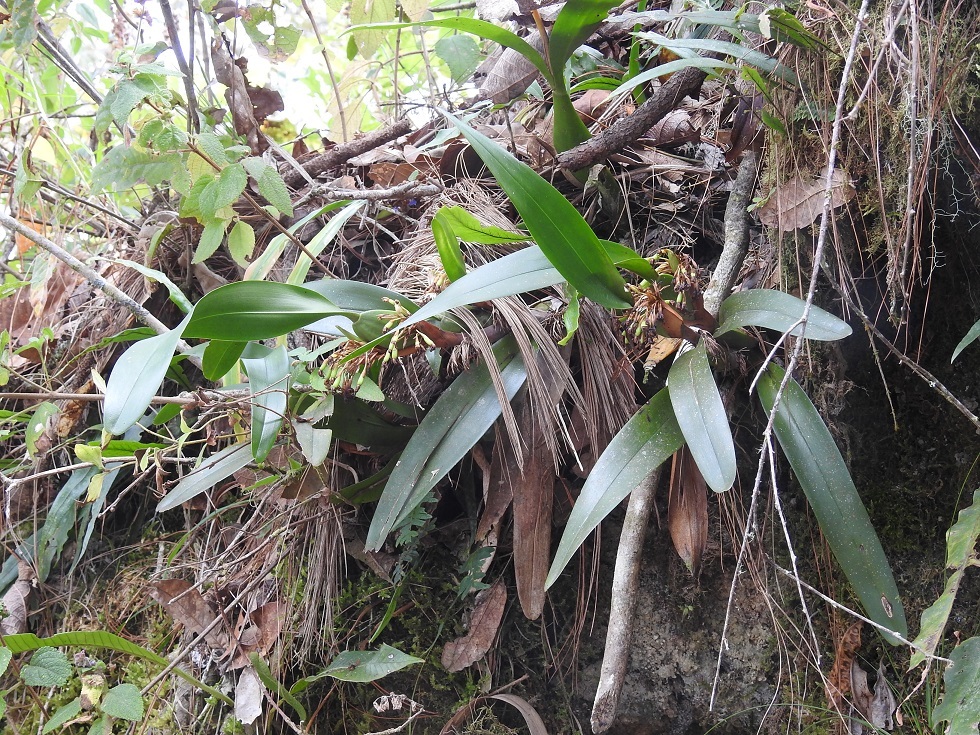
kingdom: Plantae
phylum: Tracheophyta
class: Liliopsida
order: Asparagales
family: Orchidaceae
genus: Maxillaria
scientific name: Maxillaria densa
